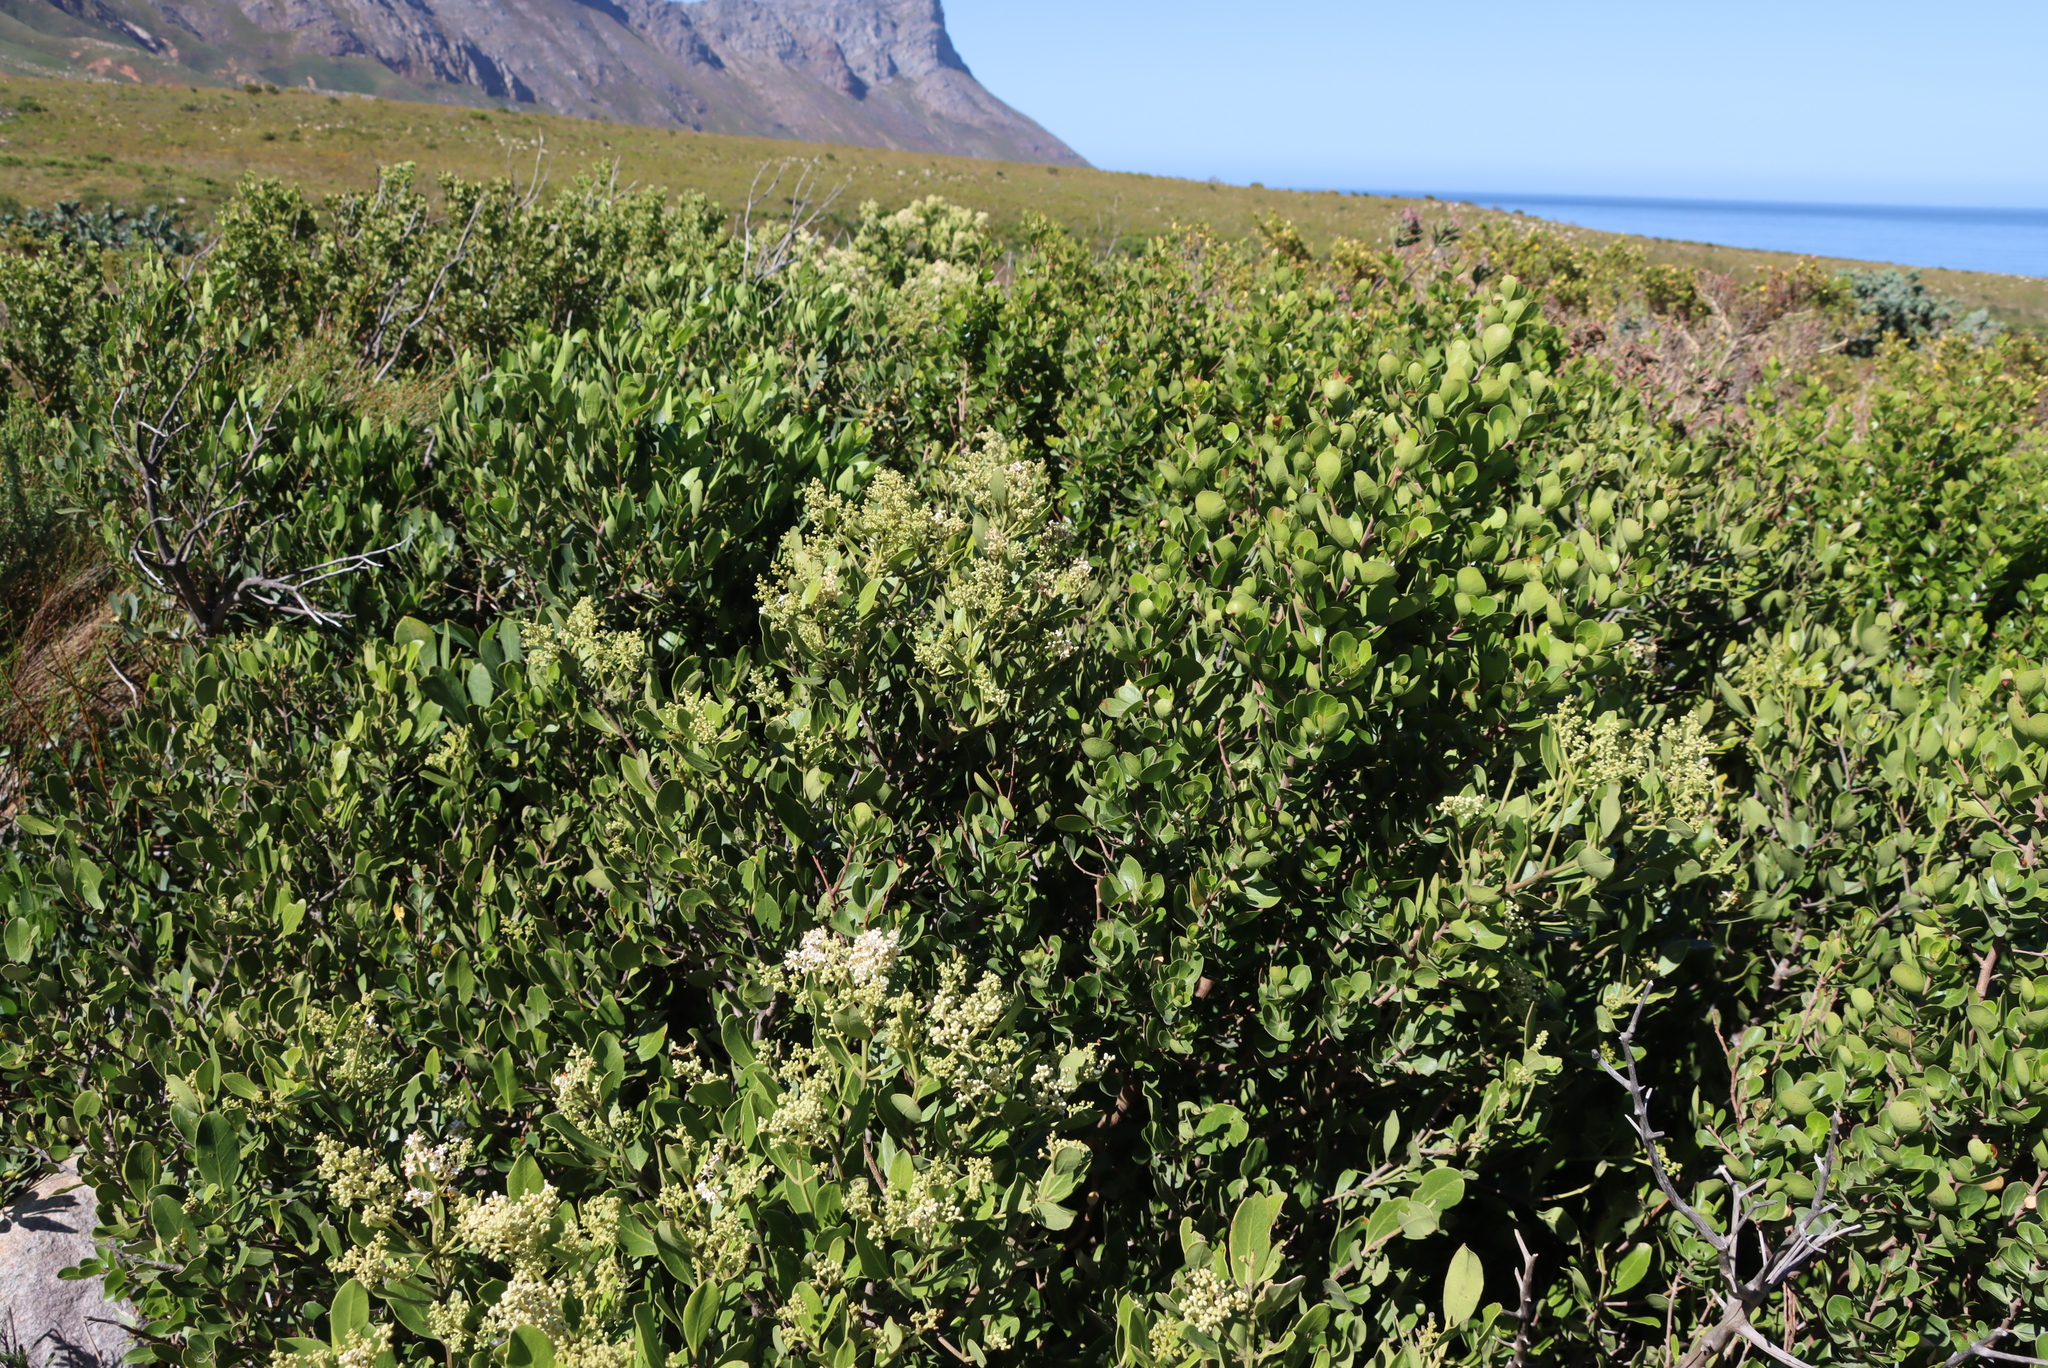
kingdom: Plantae
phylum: Tracheophyta
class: Magnoliopsida
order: Lamiales
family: Oleaceae
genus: Olea
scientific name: Olea capensis
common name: Black ironwood
